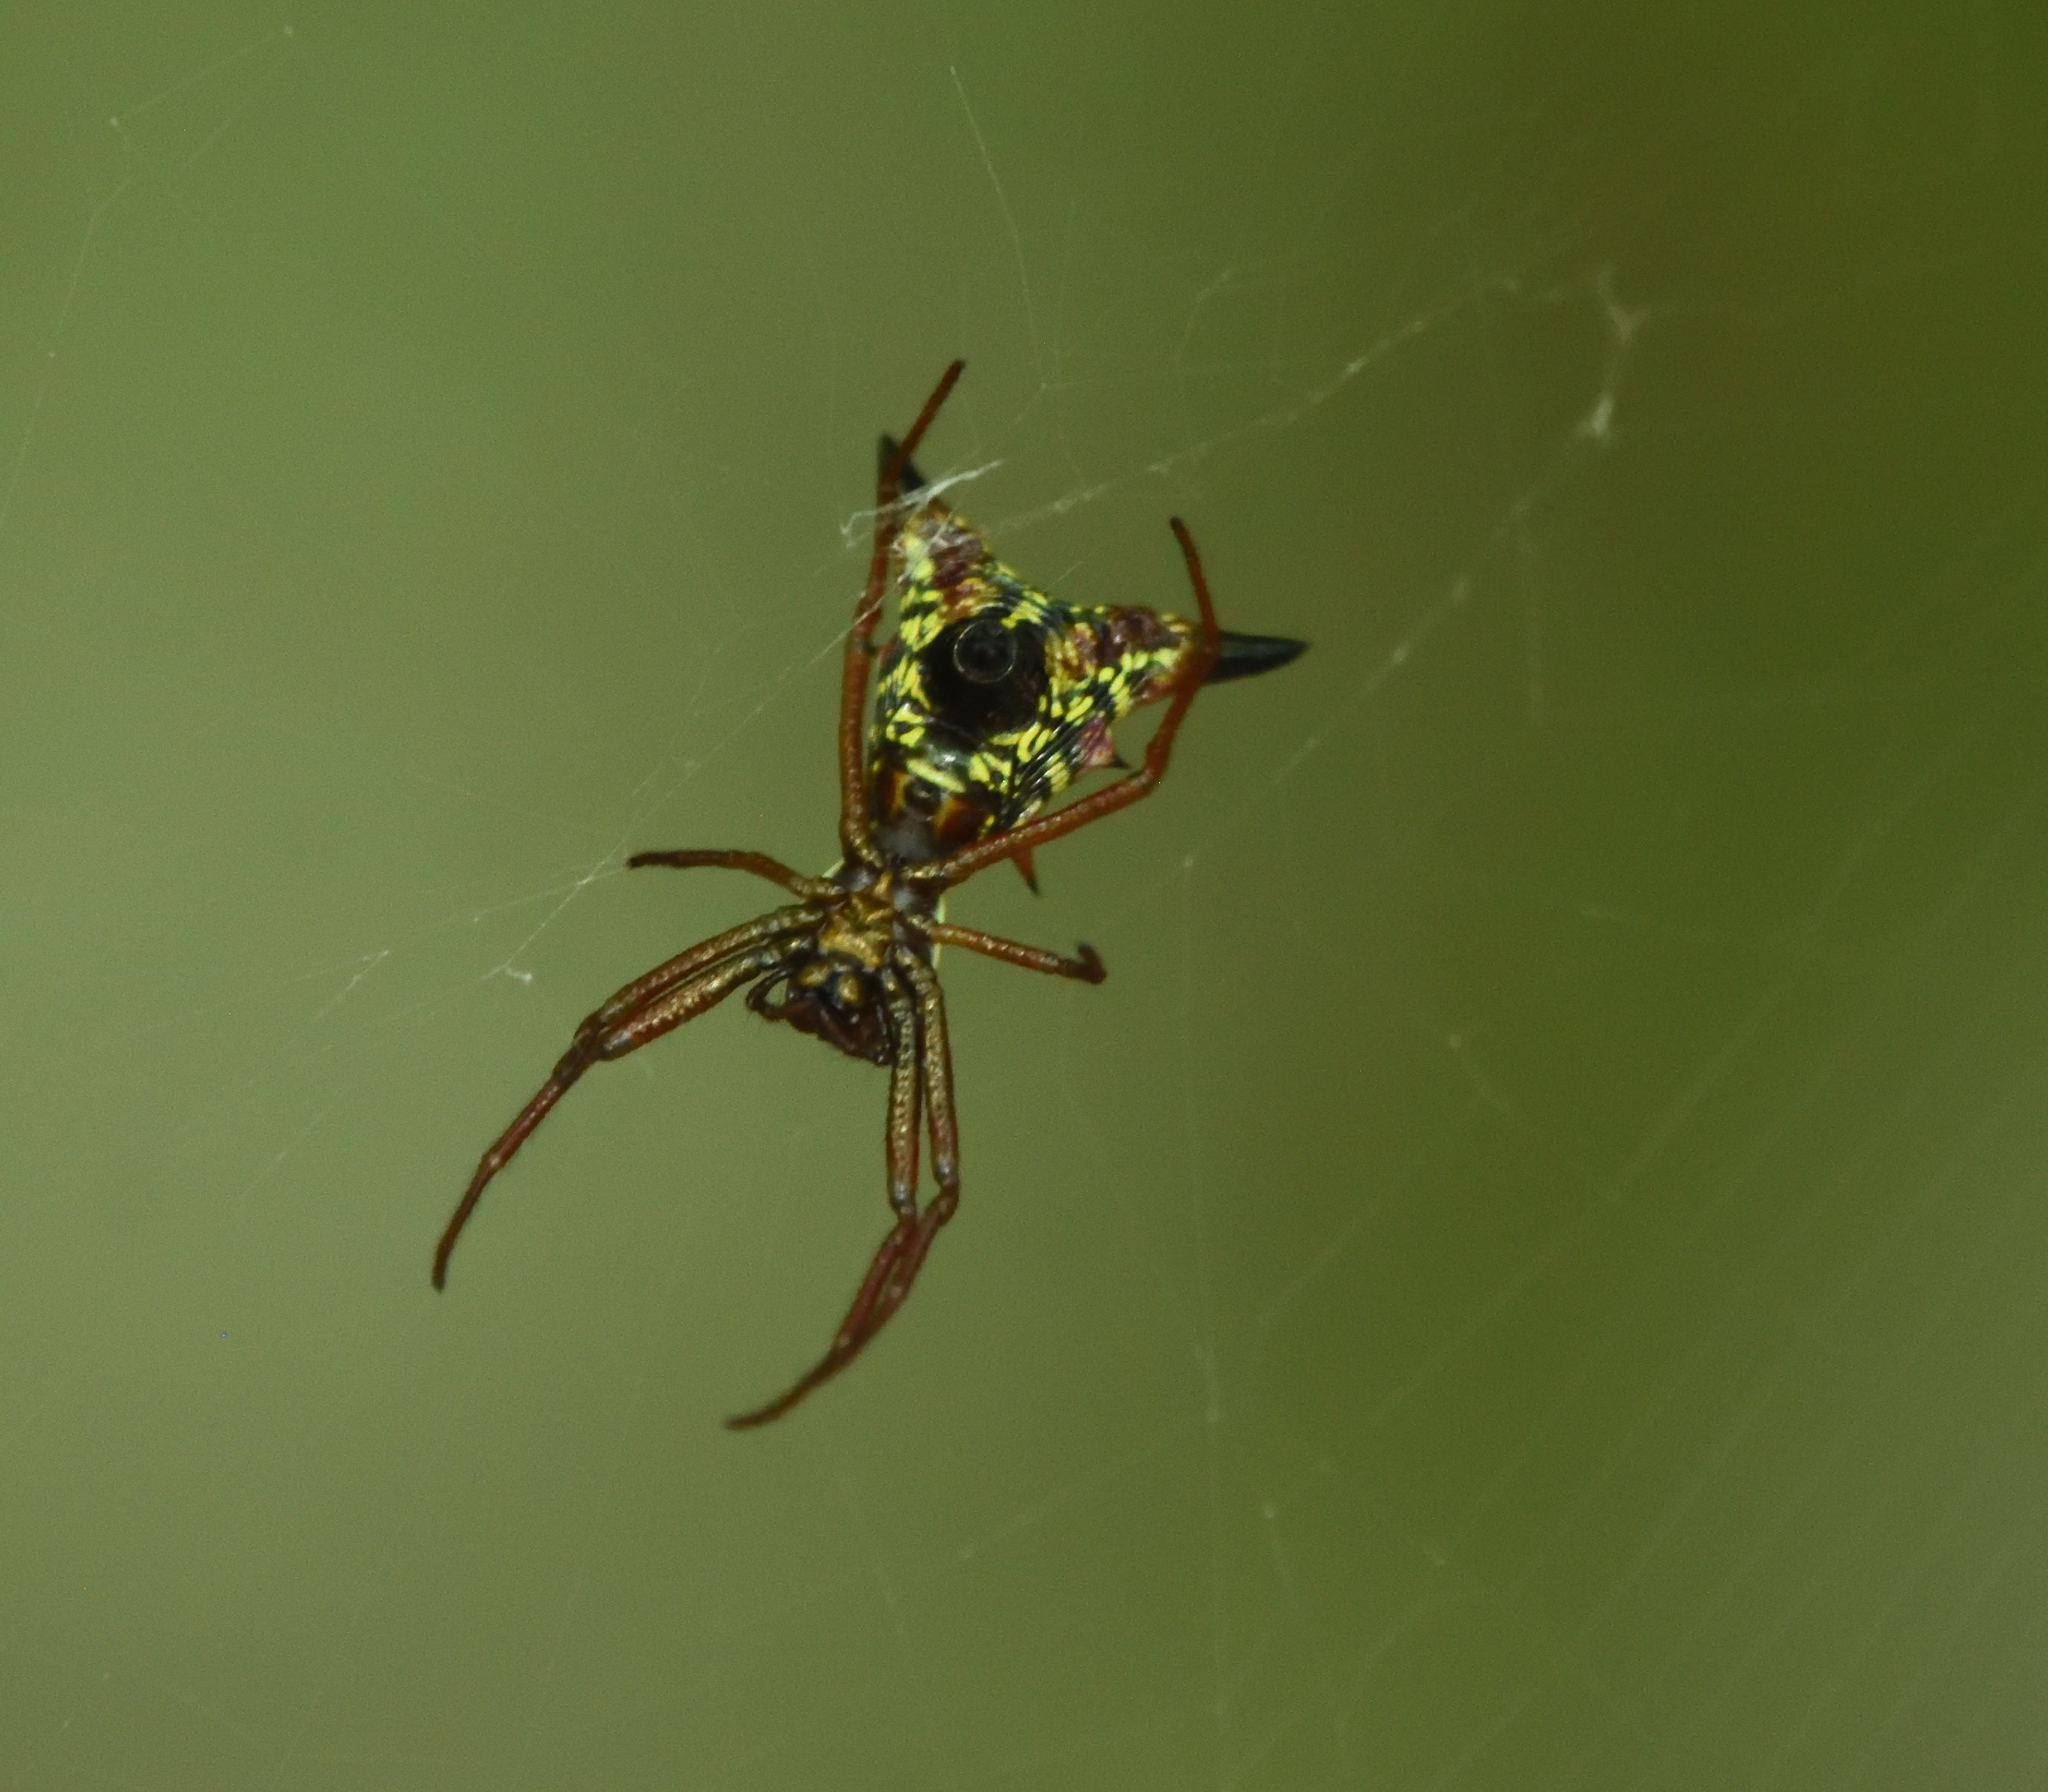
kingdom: Animalia
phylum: Arthropoda
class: Arachnida
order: Araneae
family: Araneidae
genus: Micrathena
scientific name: Micrathena sagittata
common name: Orb weavers
